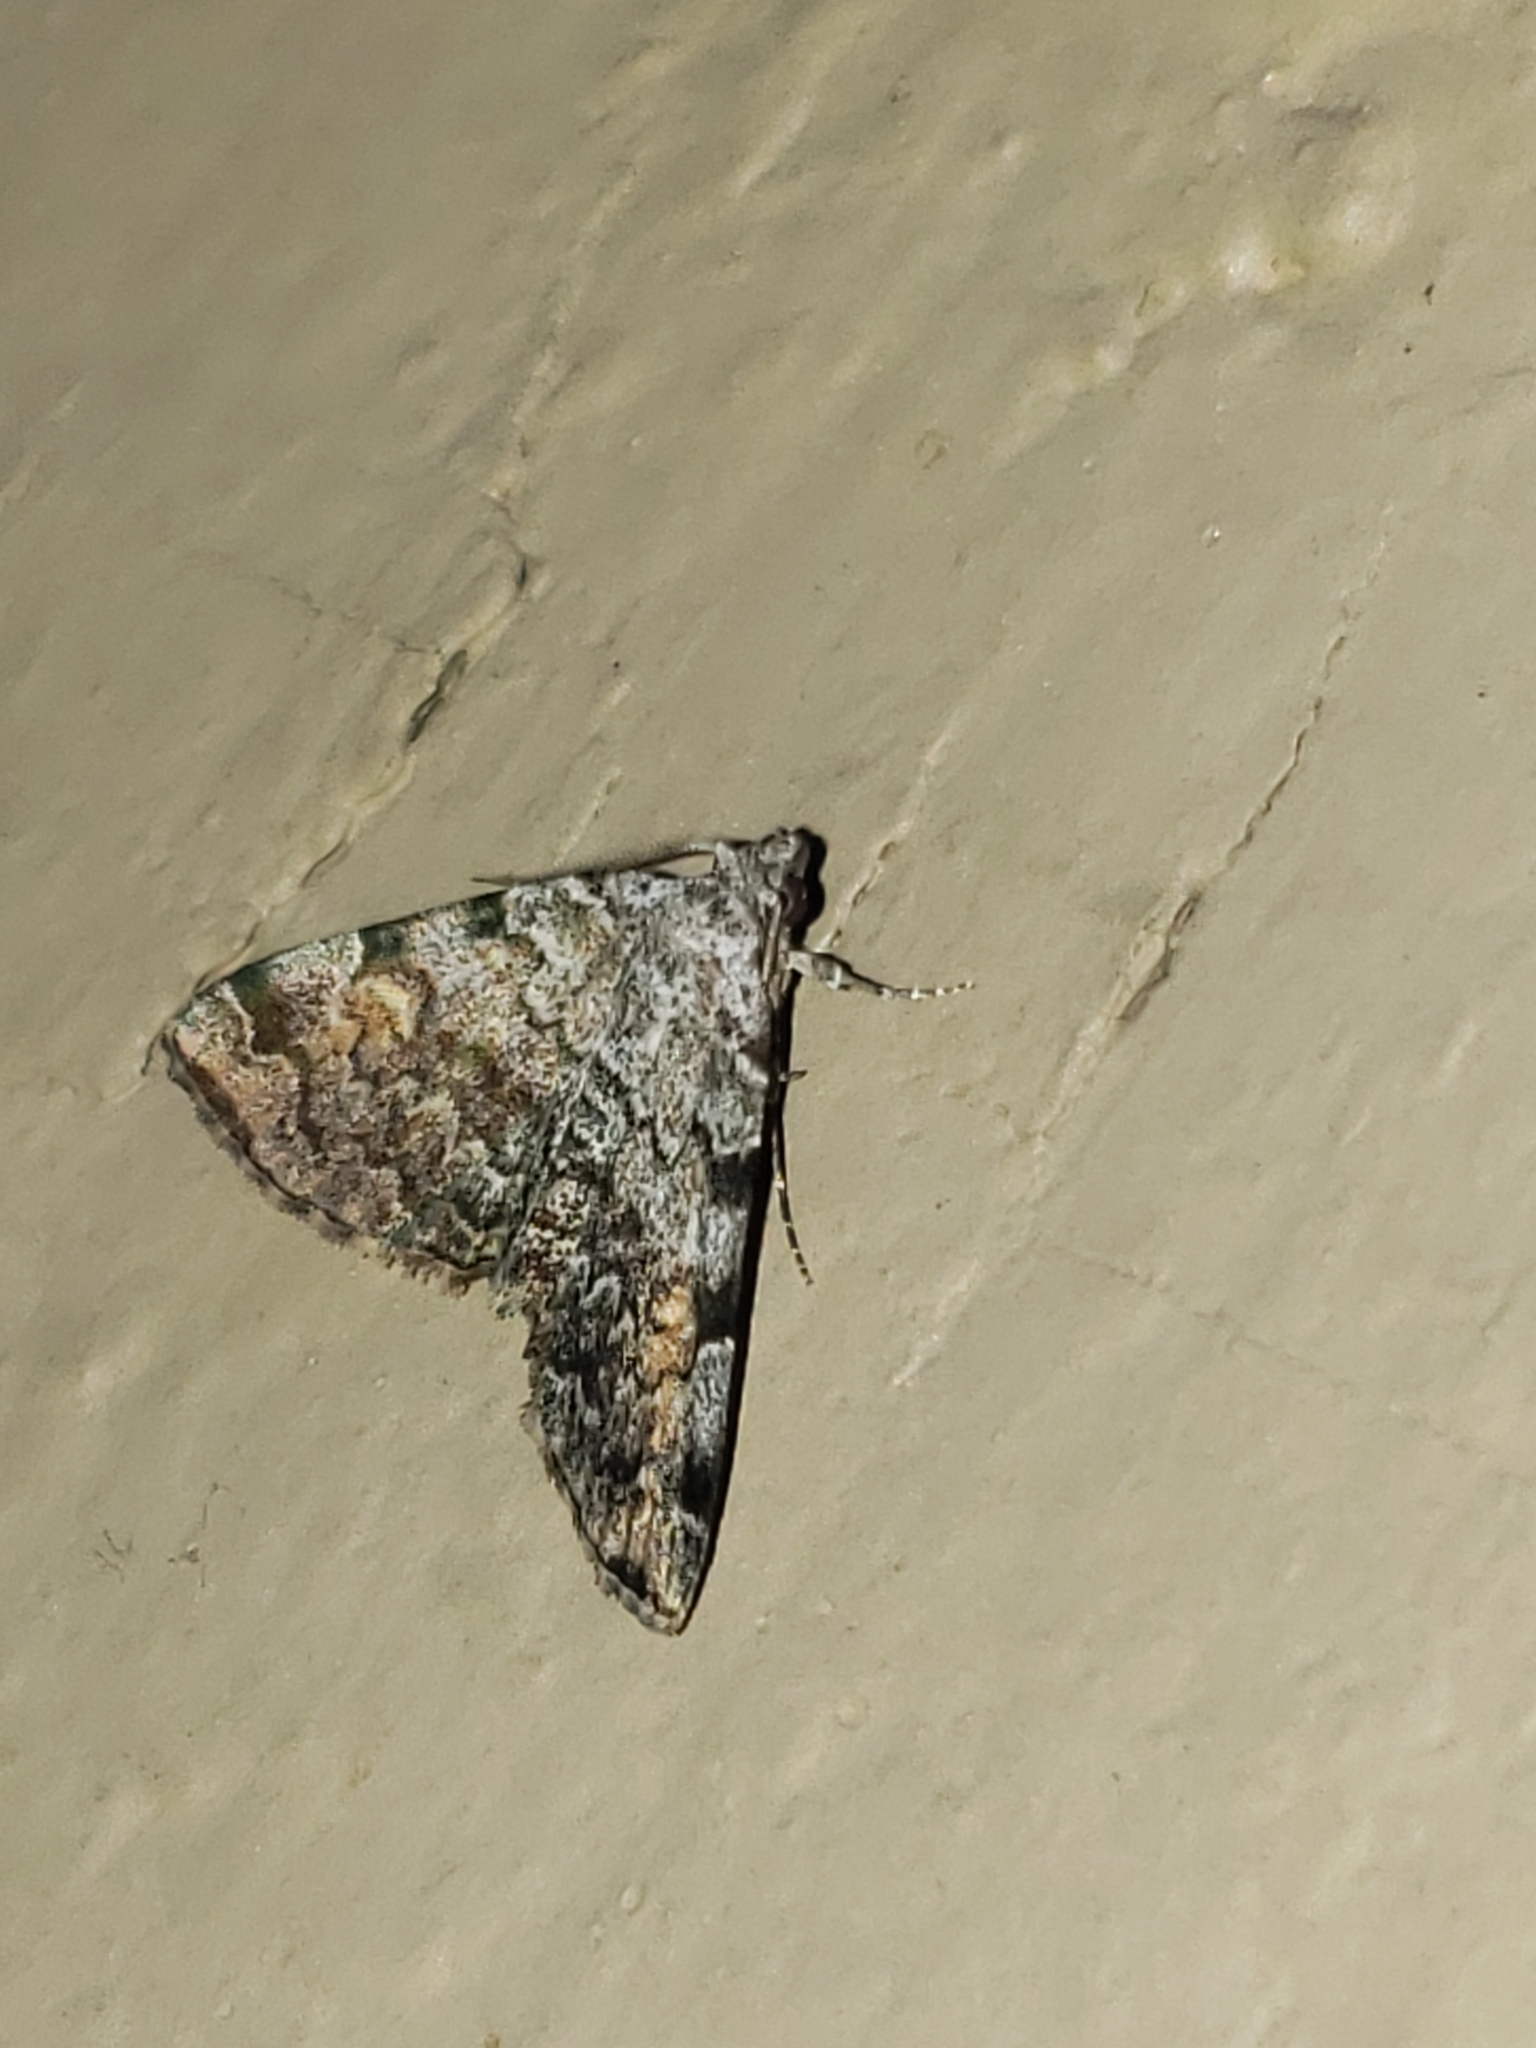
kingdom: Animalia
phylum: Arthropoda
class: Insecta
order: Lepidoptera
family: Erebidae
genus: Idia
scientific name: Idia americalis
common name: American idia moth
